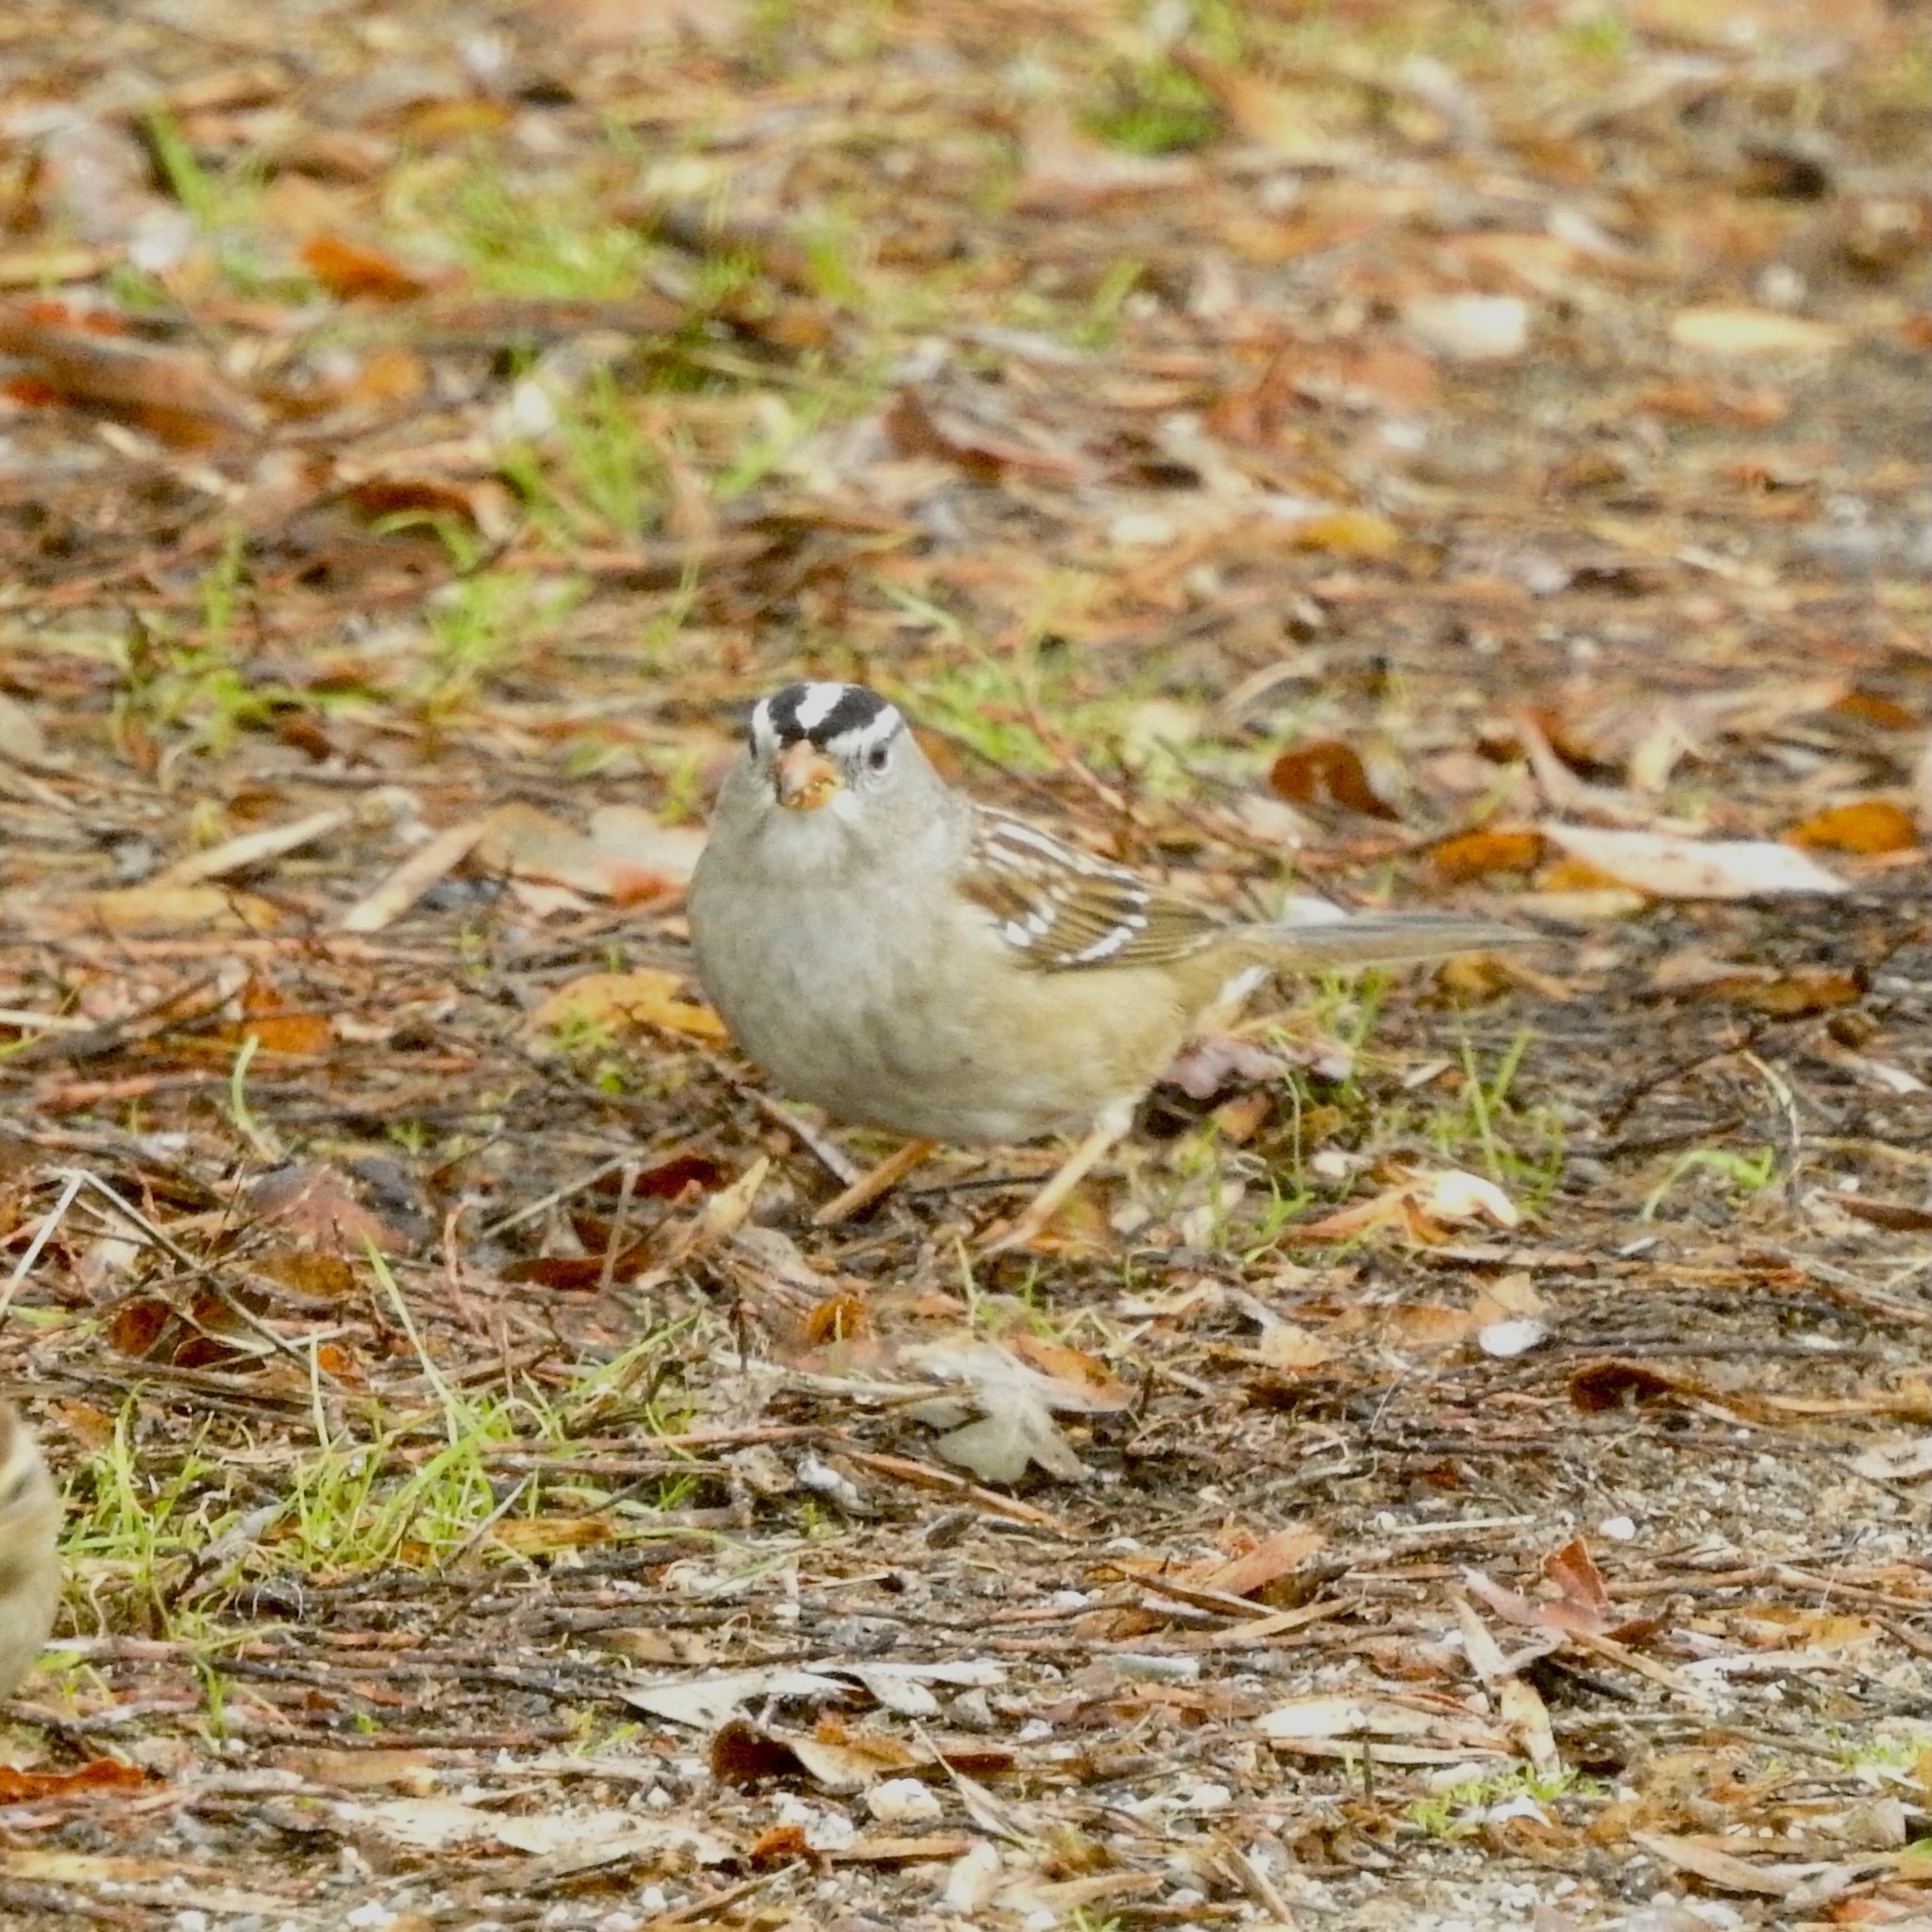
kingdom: Animalia
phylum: Chordata
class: Aves
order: Passeriformes
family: Passerellidae
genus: Zonotrichia
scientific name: Zonotrichia leucophrys
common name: White-crowned sparrow
